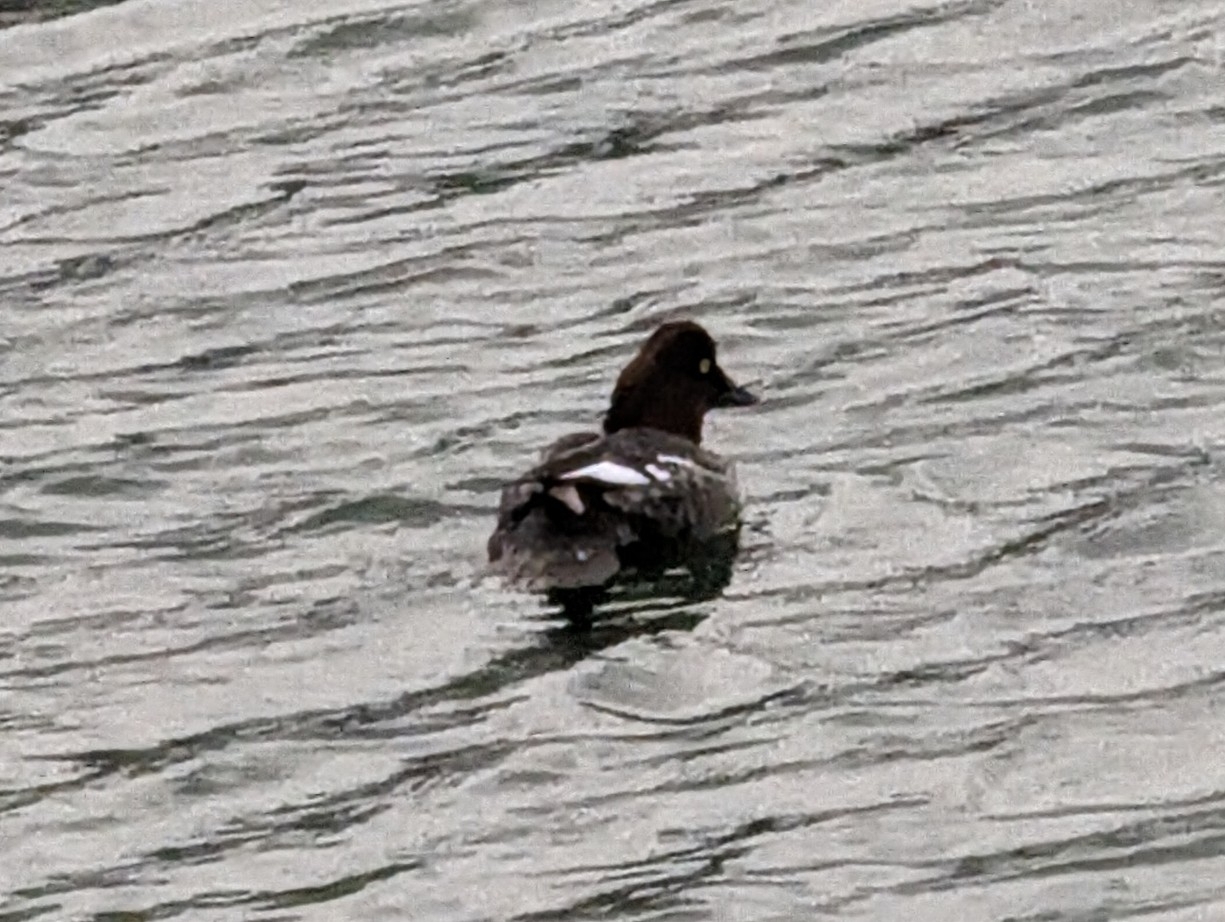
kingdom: Animalia
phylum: Chordata
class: Aves
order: Anseriformes
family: Anatidae
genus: Bucephala
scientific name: Bucephala clangula
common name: Common goldeneye
